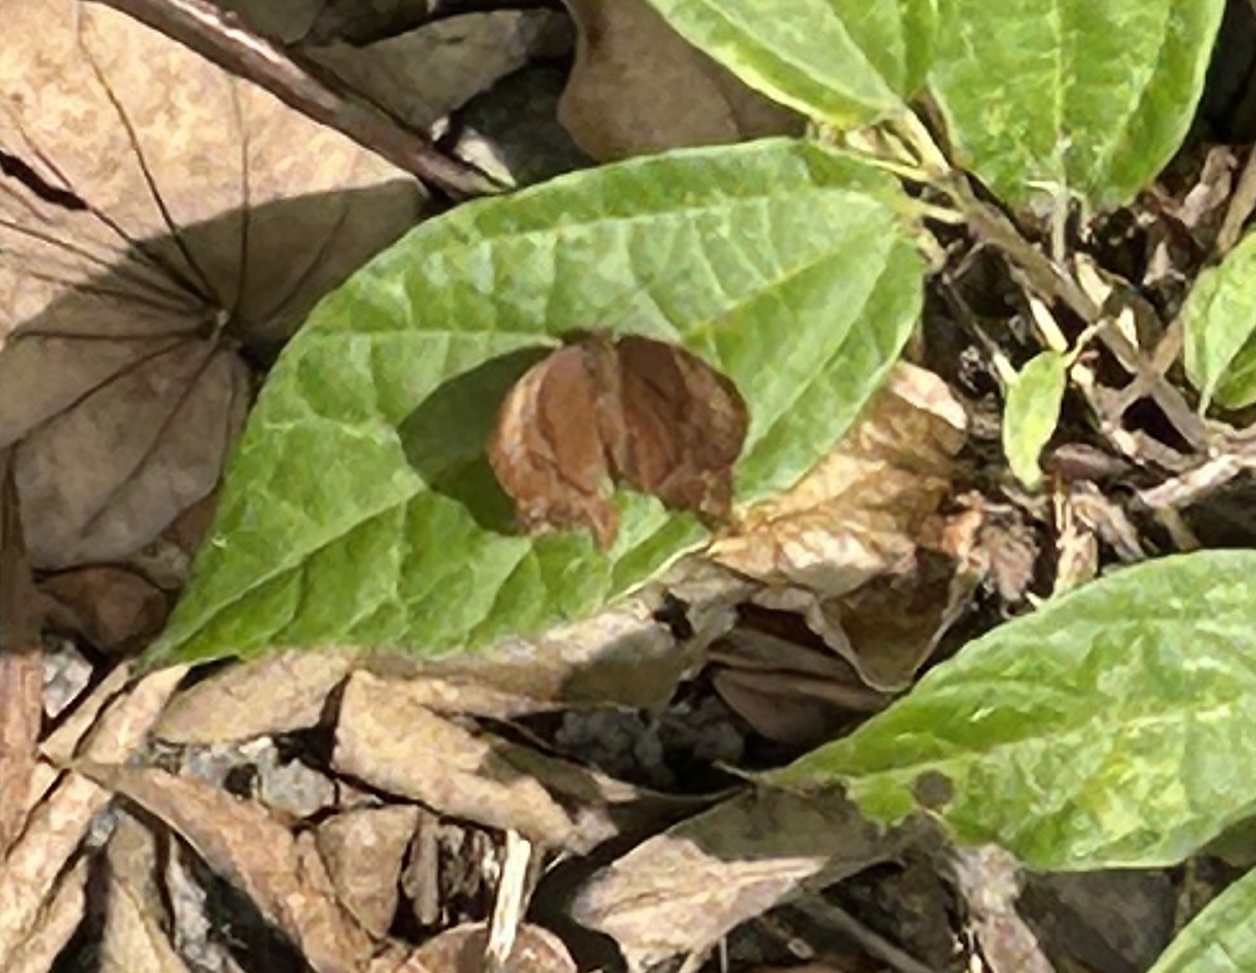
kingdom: Animalia
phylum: Arthropoda
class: Insecta
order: Lepidoptera
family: Lycaenidae
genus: Abisara
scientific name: Abisara echeria
